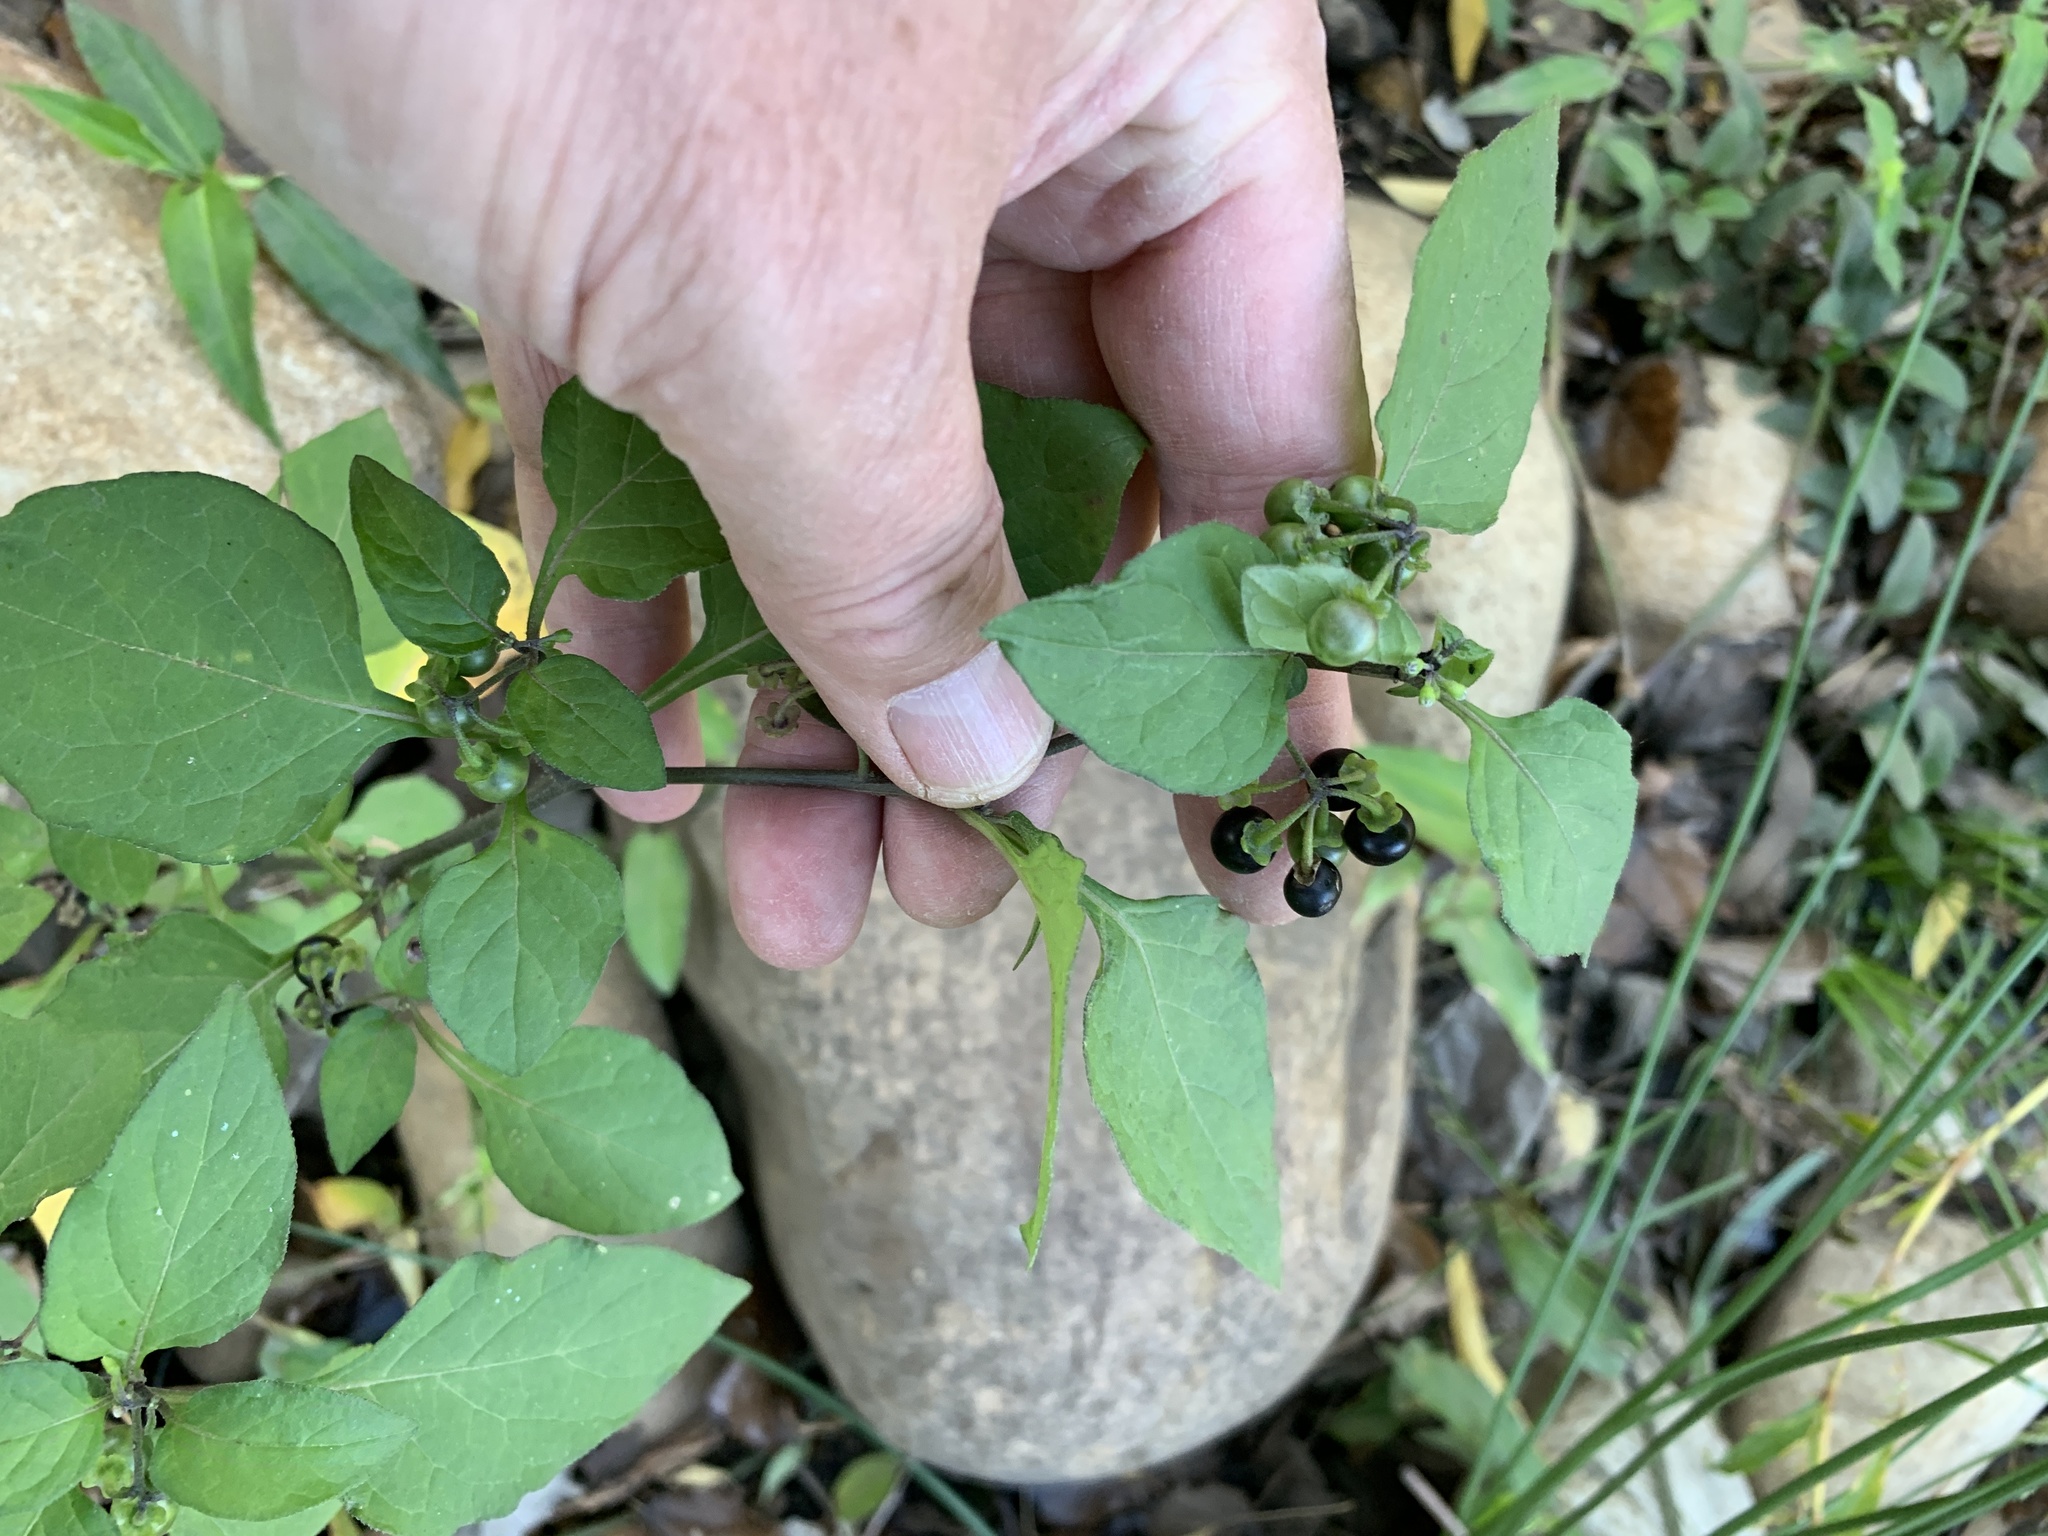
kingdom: Plantae
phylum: Tracheophyta
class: Magnoliopsida
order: Solanales
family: Solanaceae
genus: Solanum
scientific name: Solanum nigrum
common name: Black nightshade
